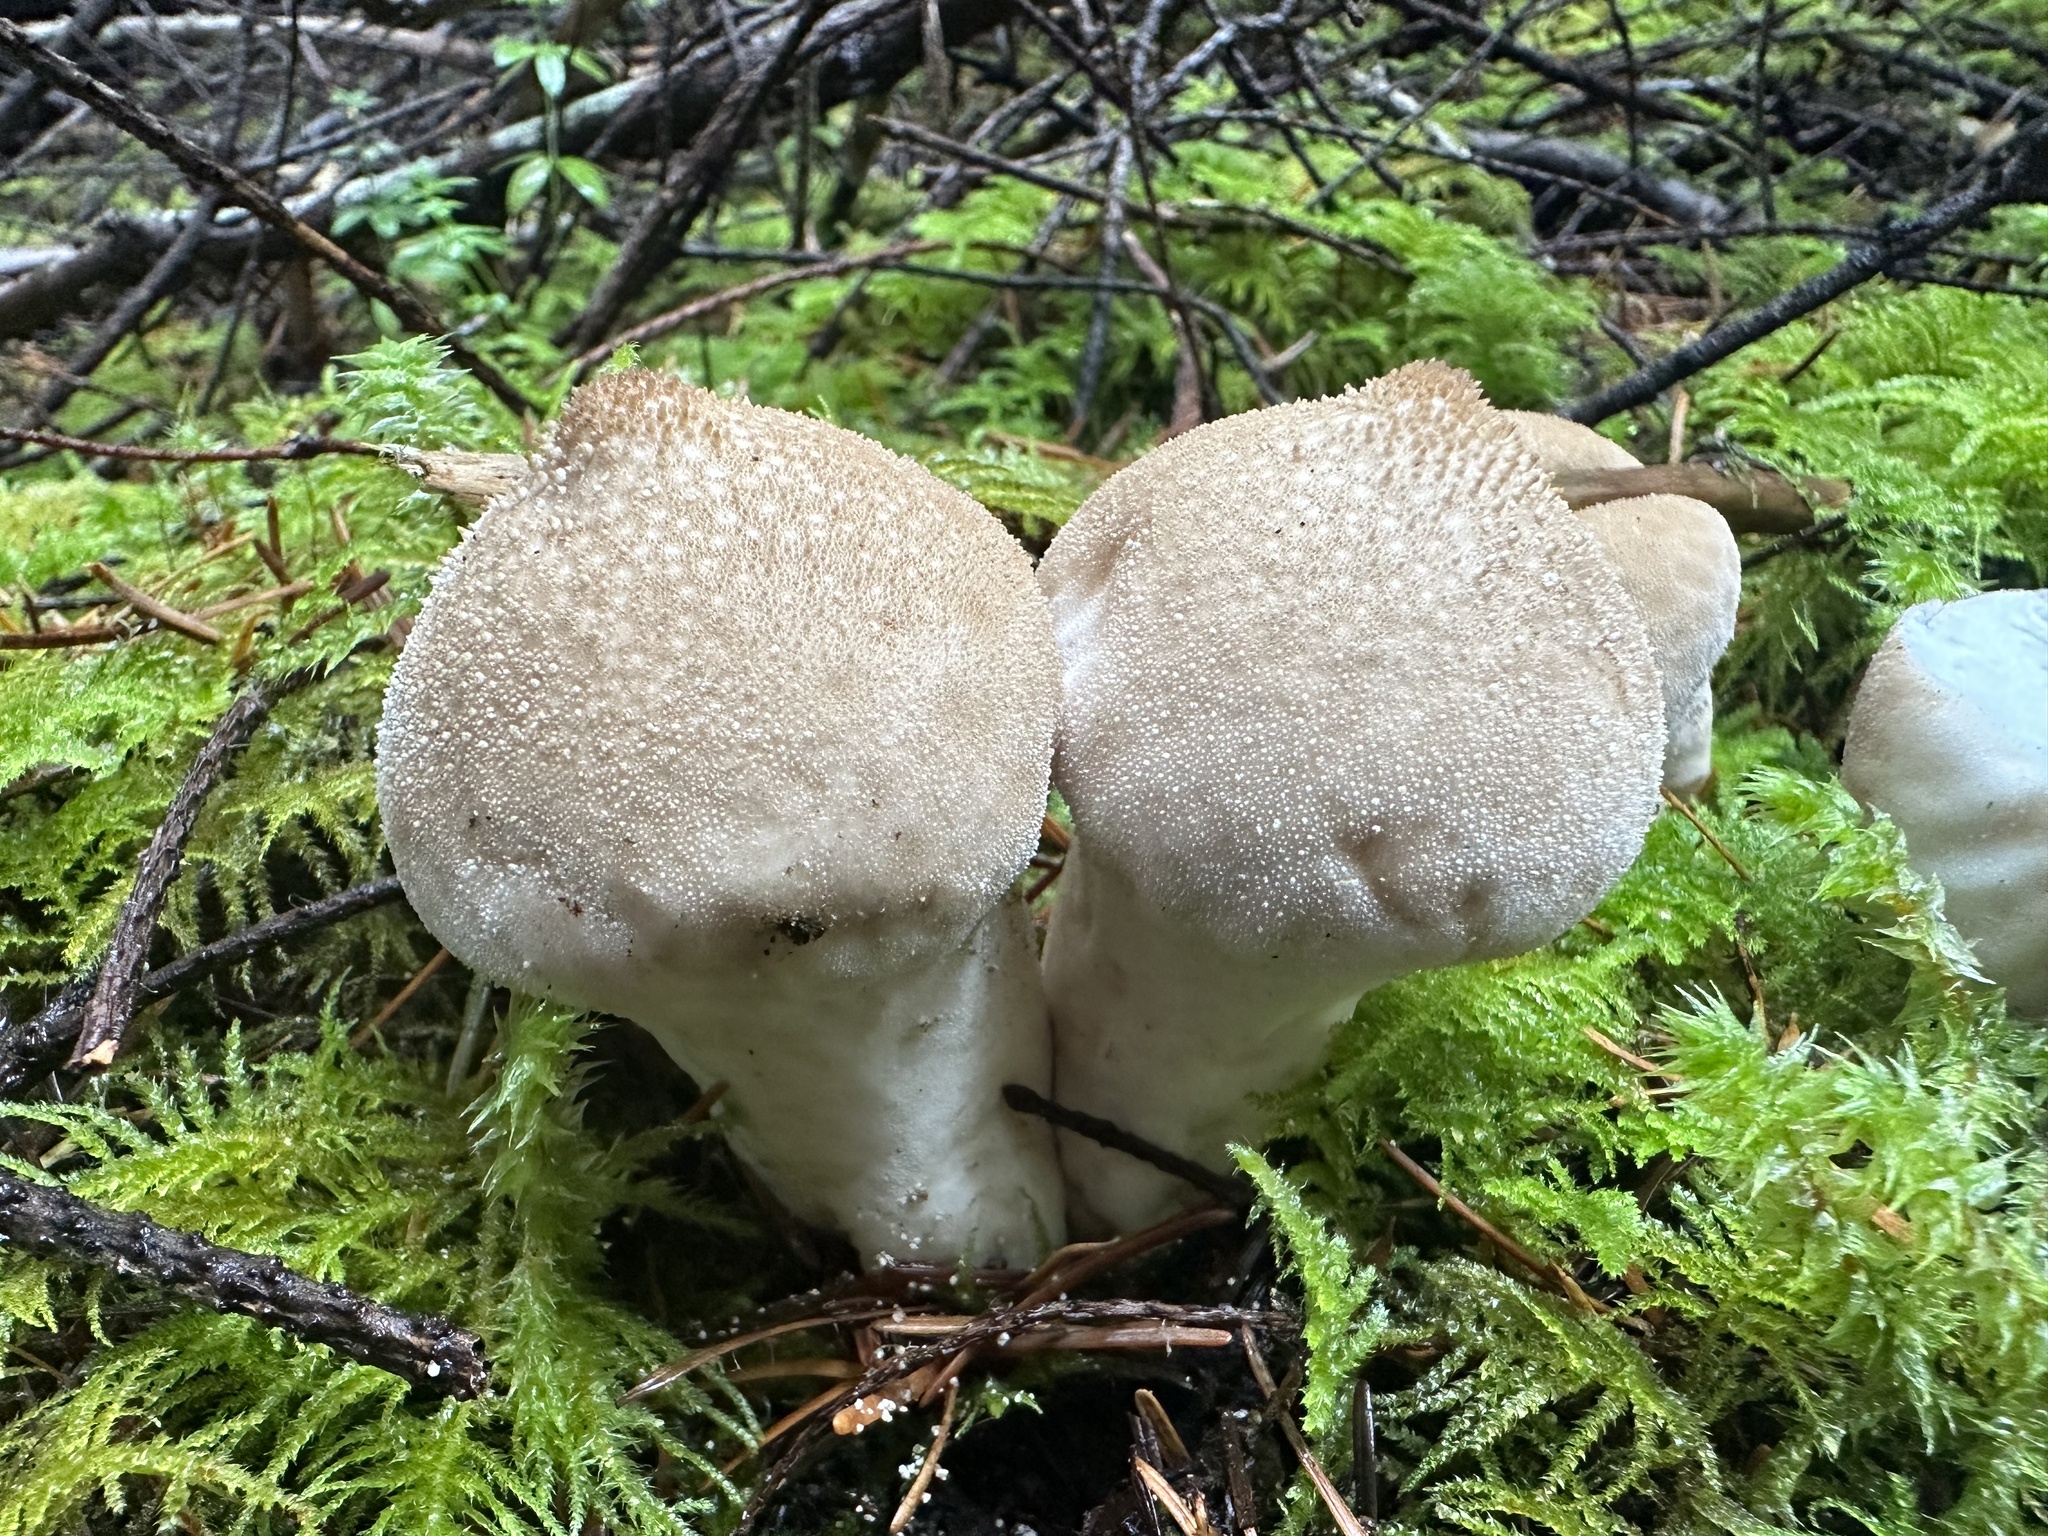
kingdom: Fungi
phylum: Basidiomycota
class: Agaricomycetes
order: Agaricales
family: Lycoperdaceae
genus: Lycoperdon
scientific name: Lycoperdon perlatum
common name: Common puffball
